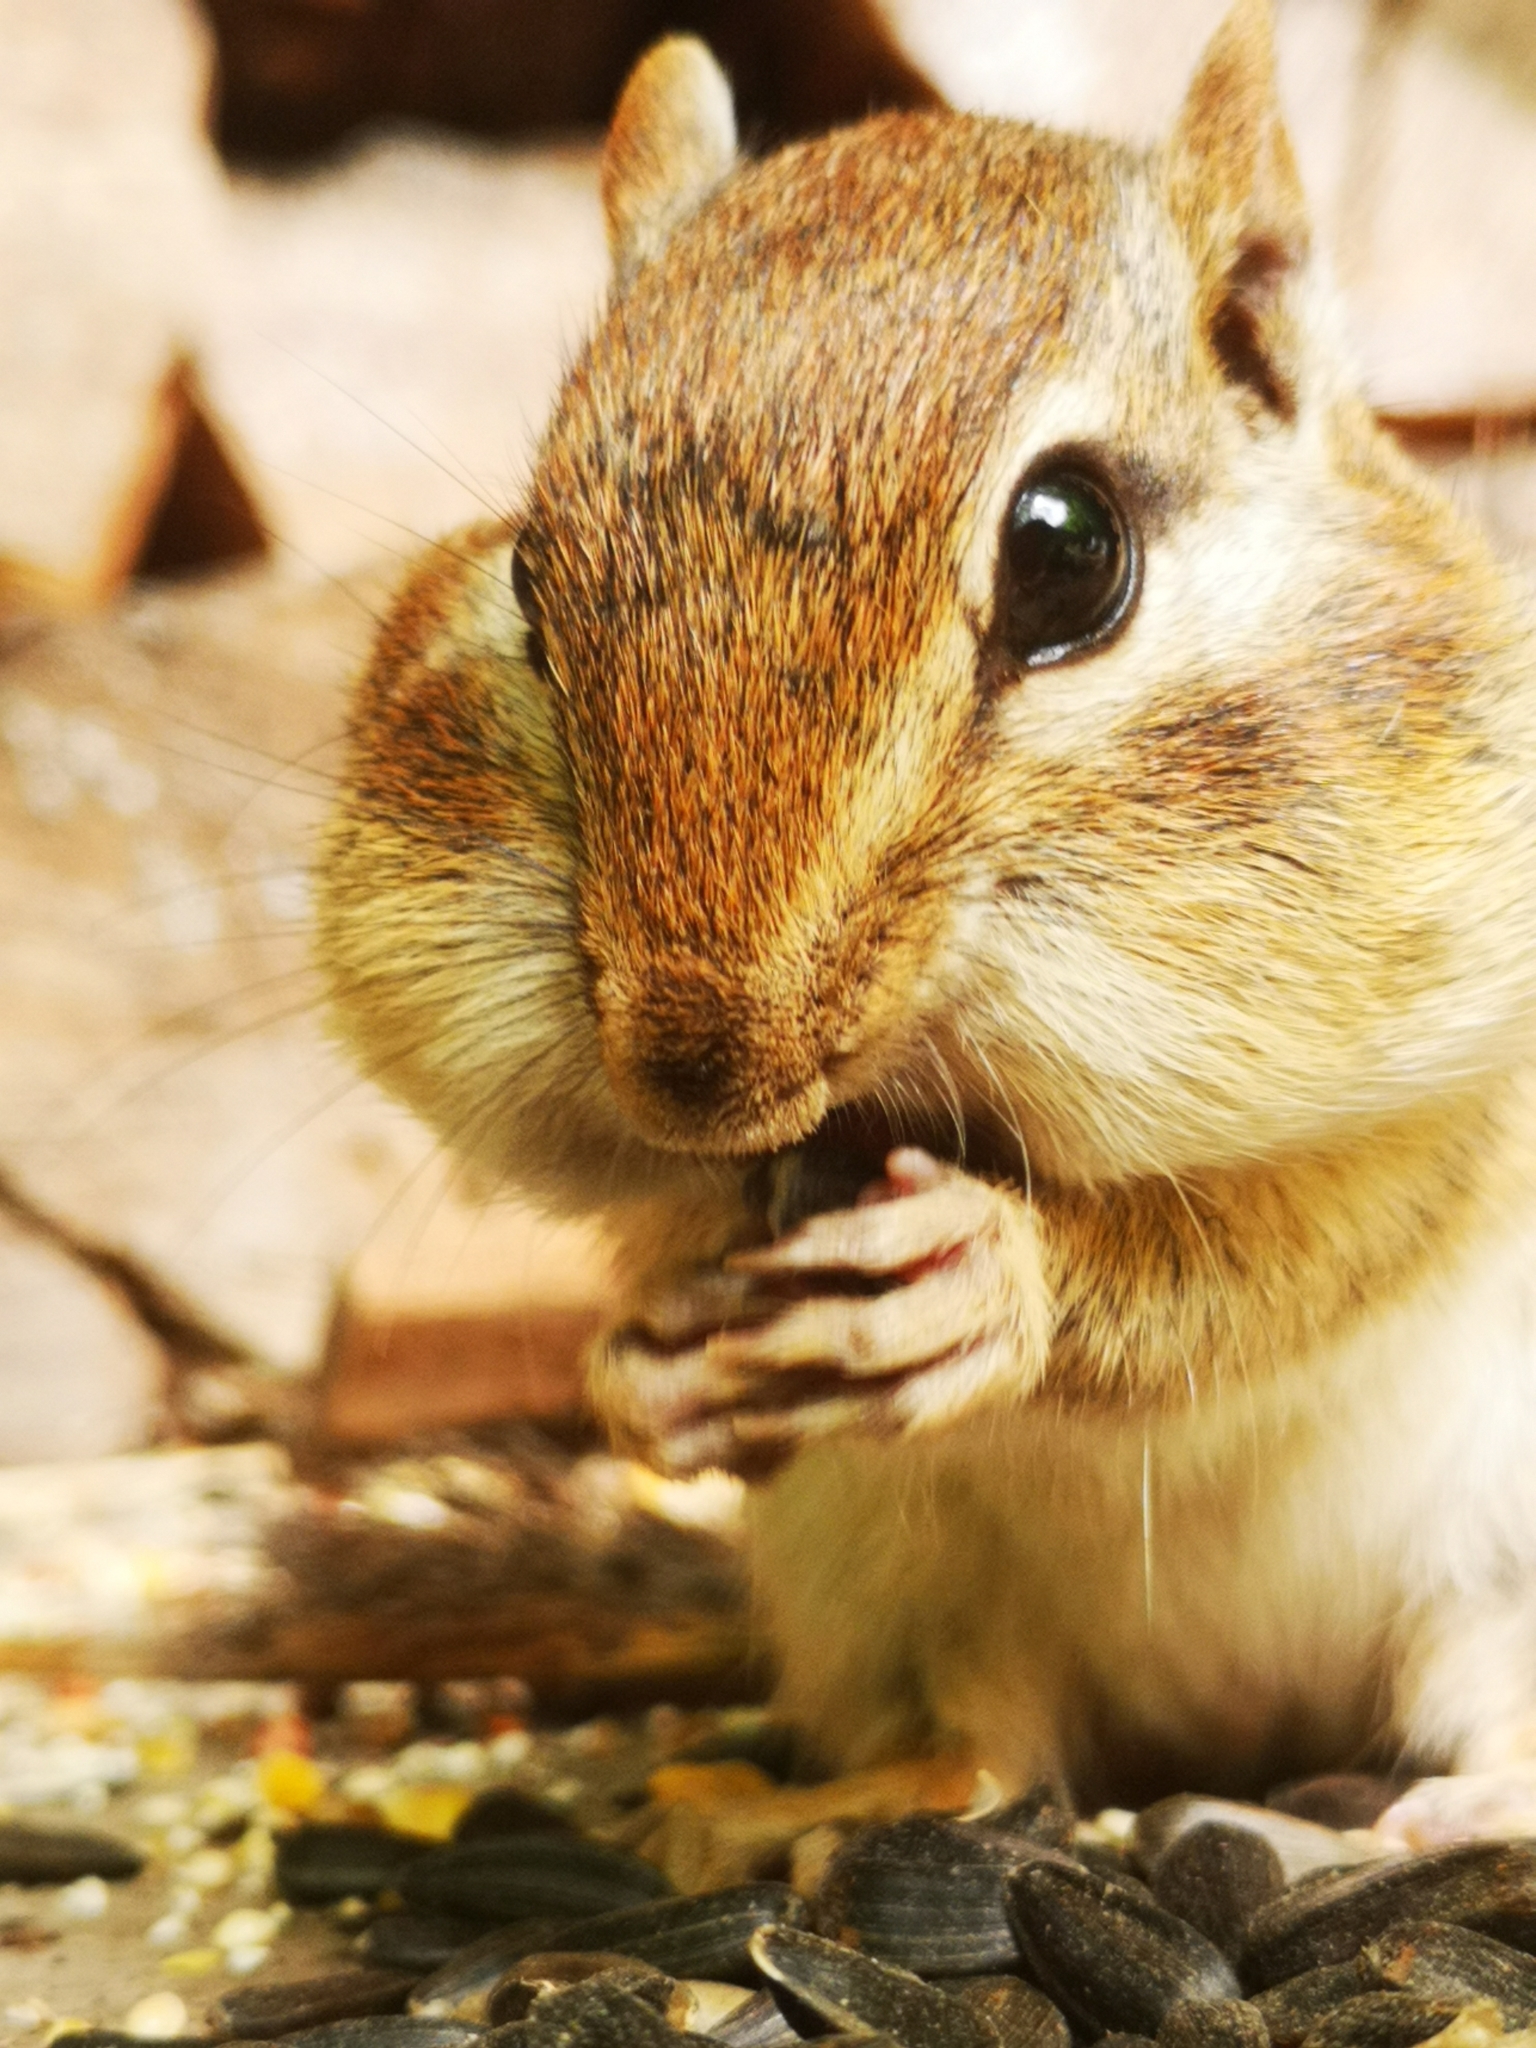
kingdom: Animalia
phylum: Chordata
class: Mammalia
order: Rodentia
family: Sciuridae
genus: Tamias
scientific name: Tamias striatus
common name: Eastern chipmunk
